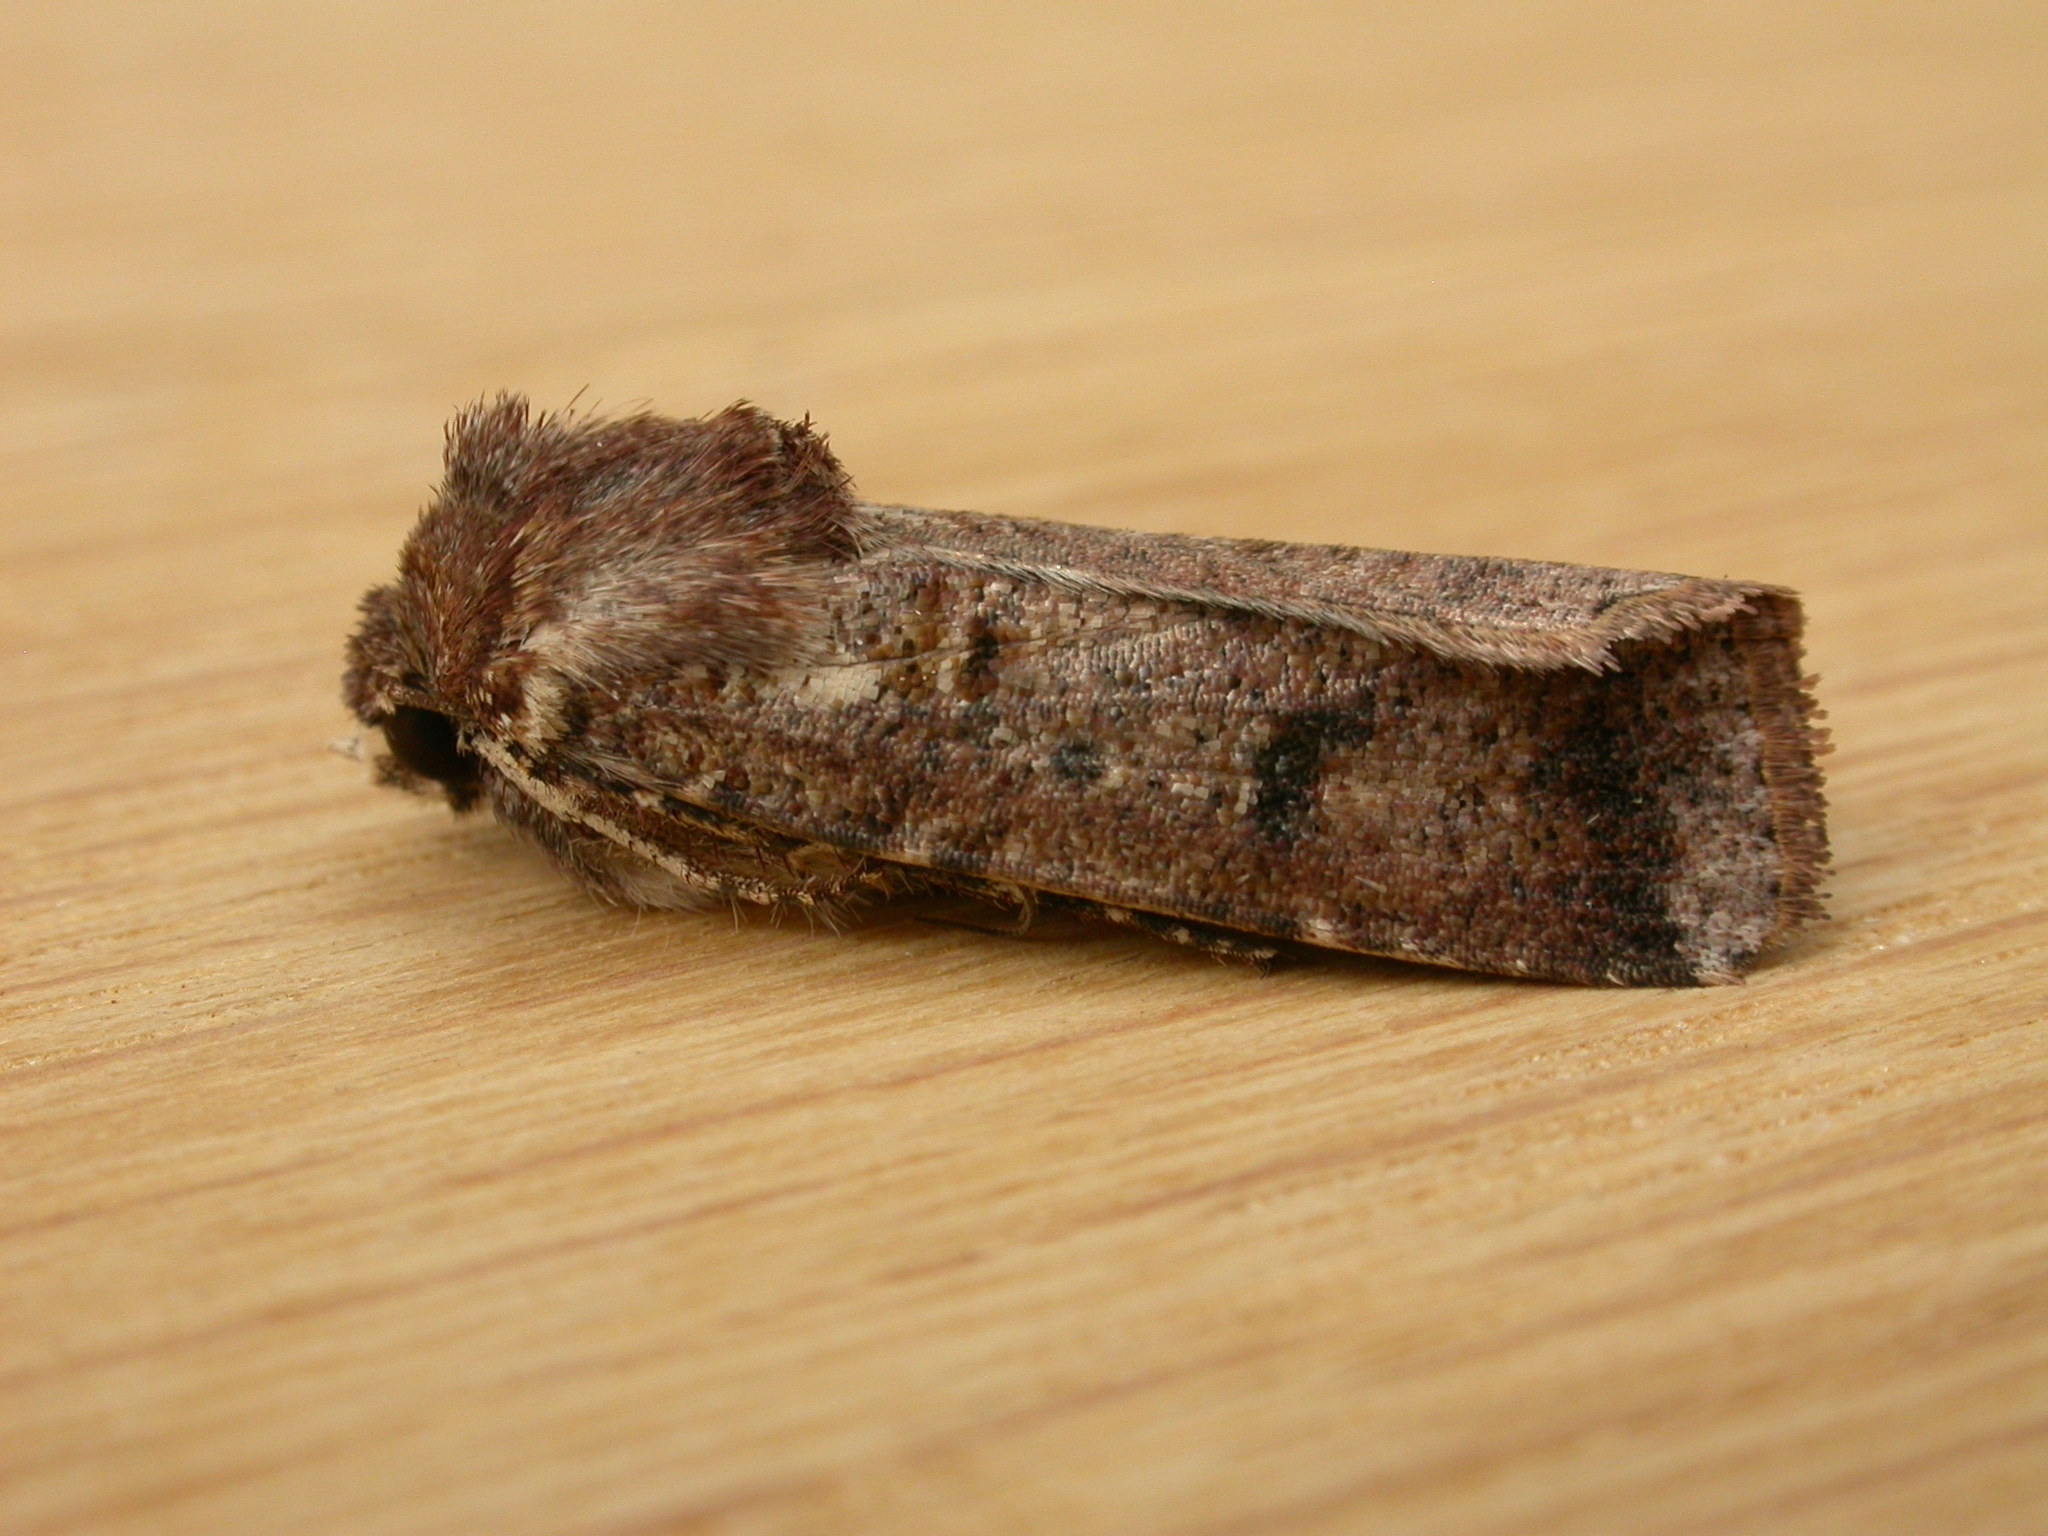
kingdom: Animalia
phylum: Arthropoda
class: Insecta
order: Lepidoptera
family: Noctuidae
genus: Agrotis
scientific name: Agrotis porphyricollis
